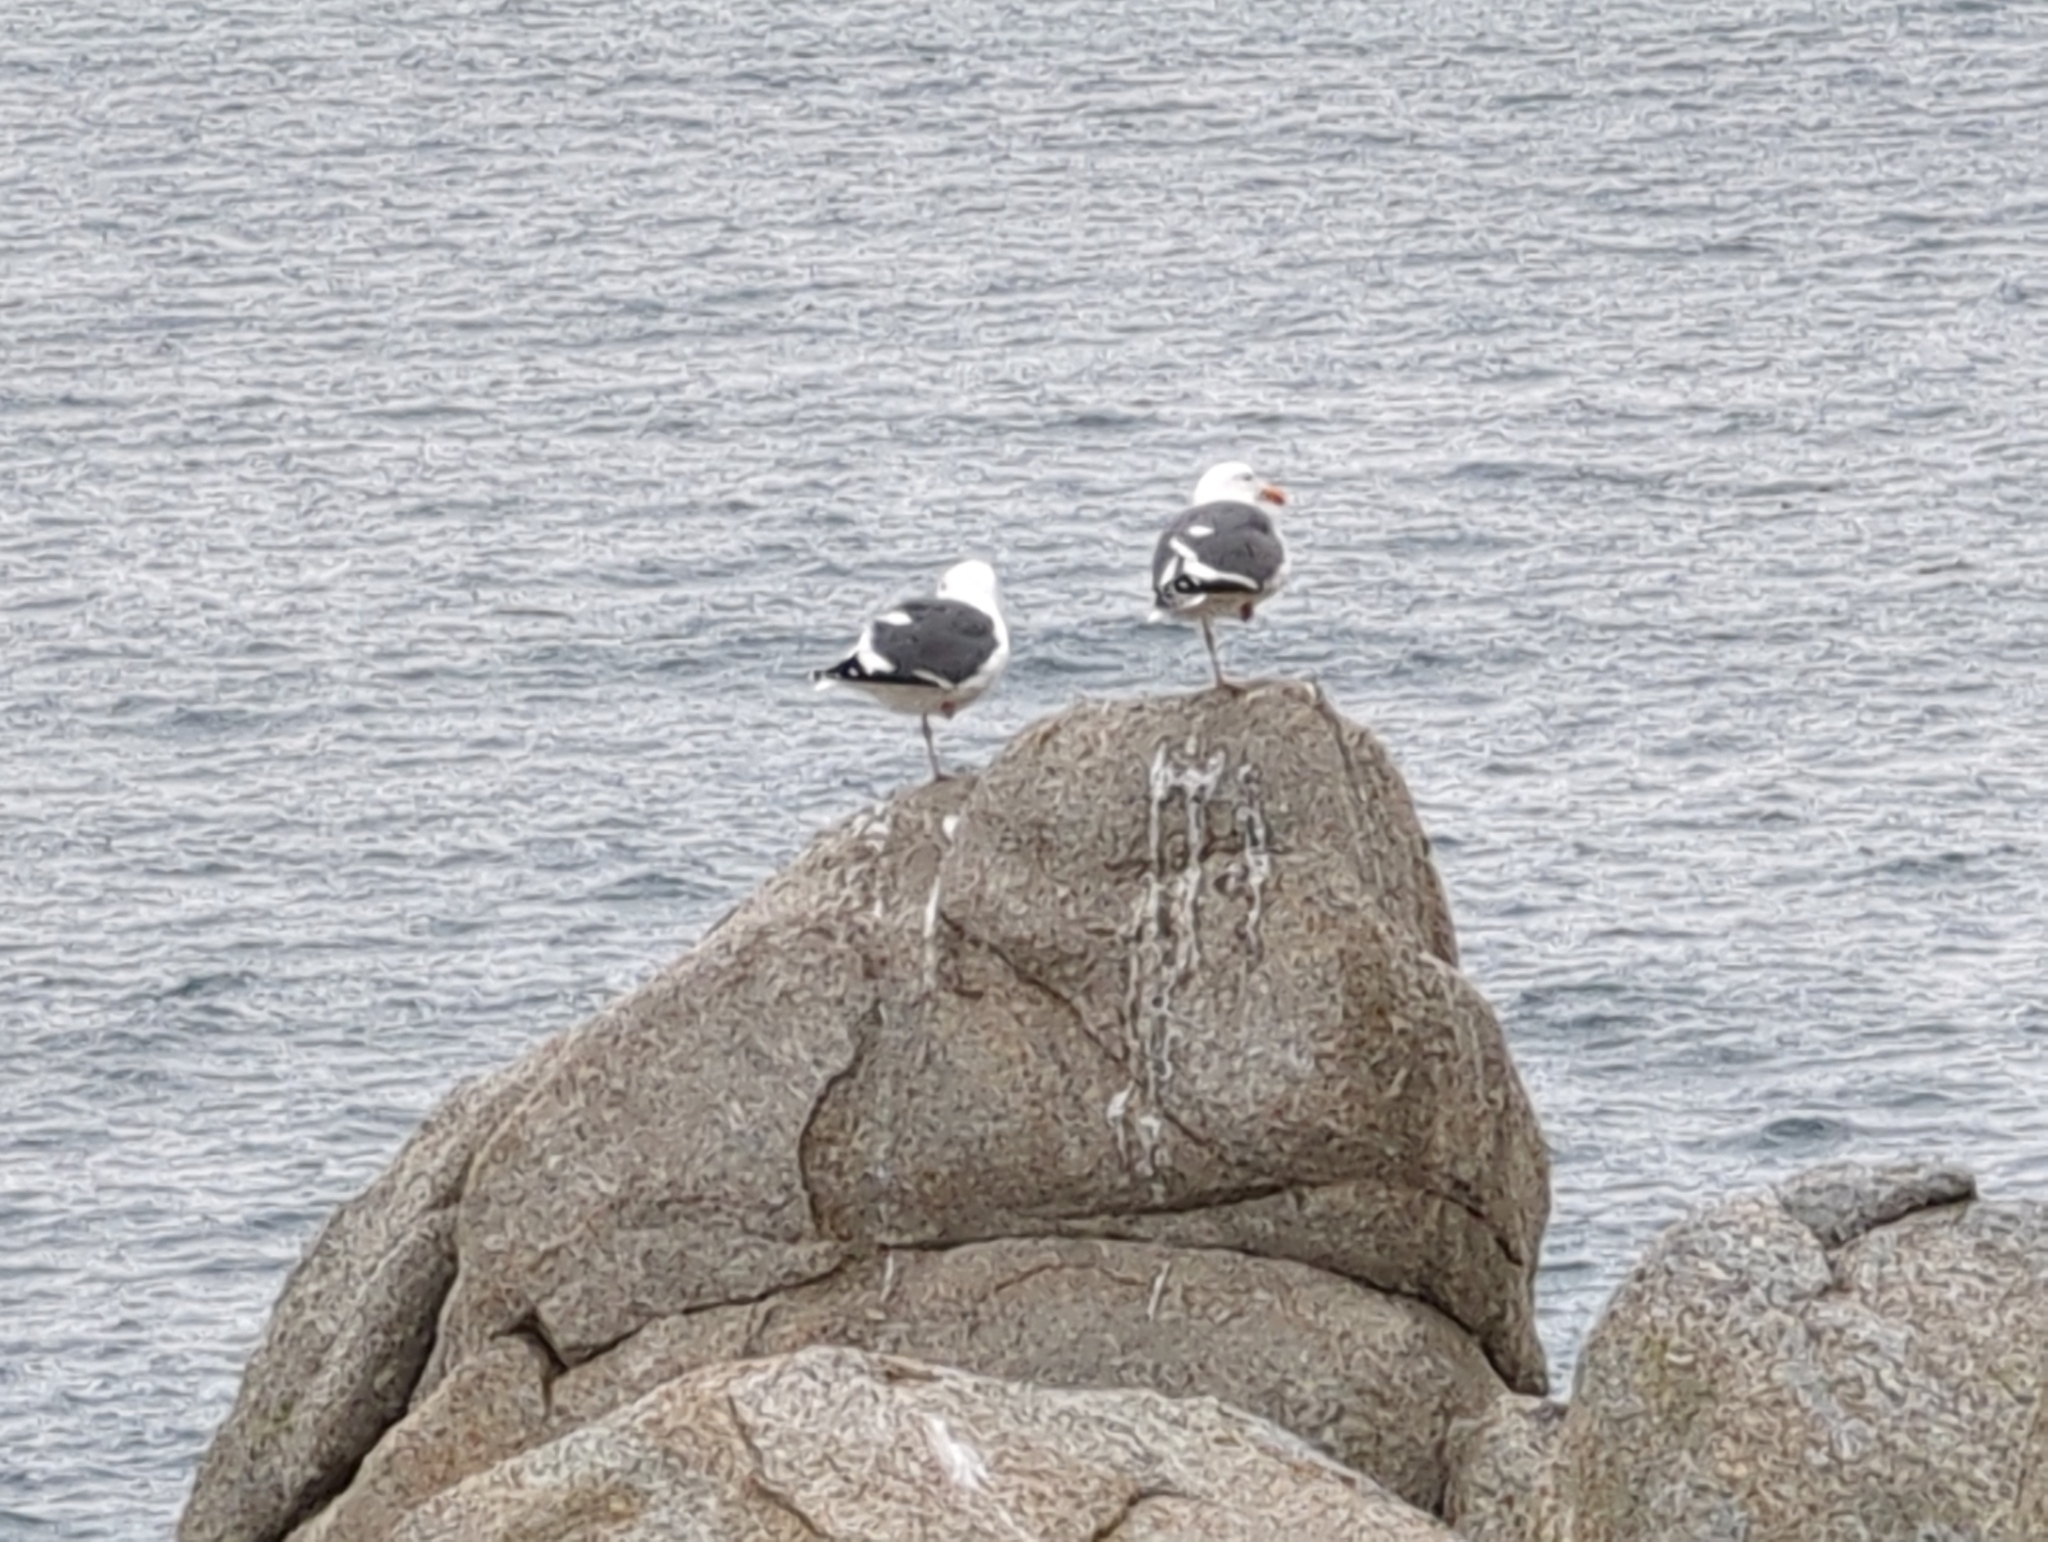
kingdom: Animalia
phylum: Chordata
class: Aves
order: Charadriiformes
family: Laridae
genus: Larus
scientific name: Larus occidentalis
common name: Western gull
